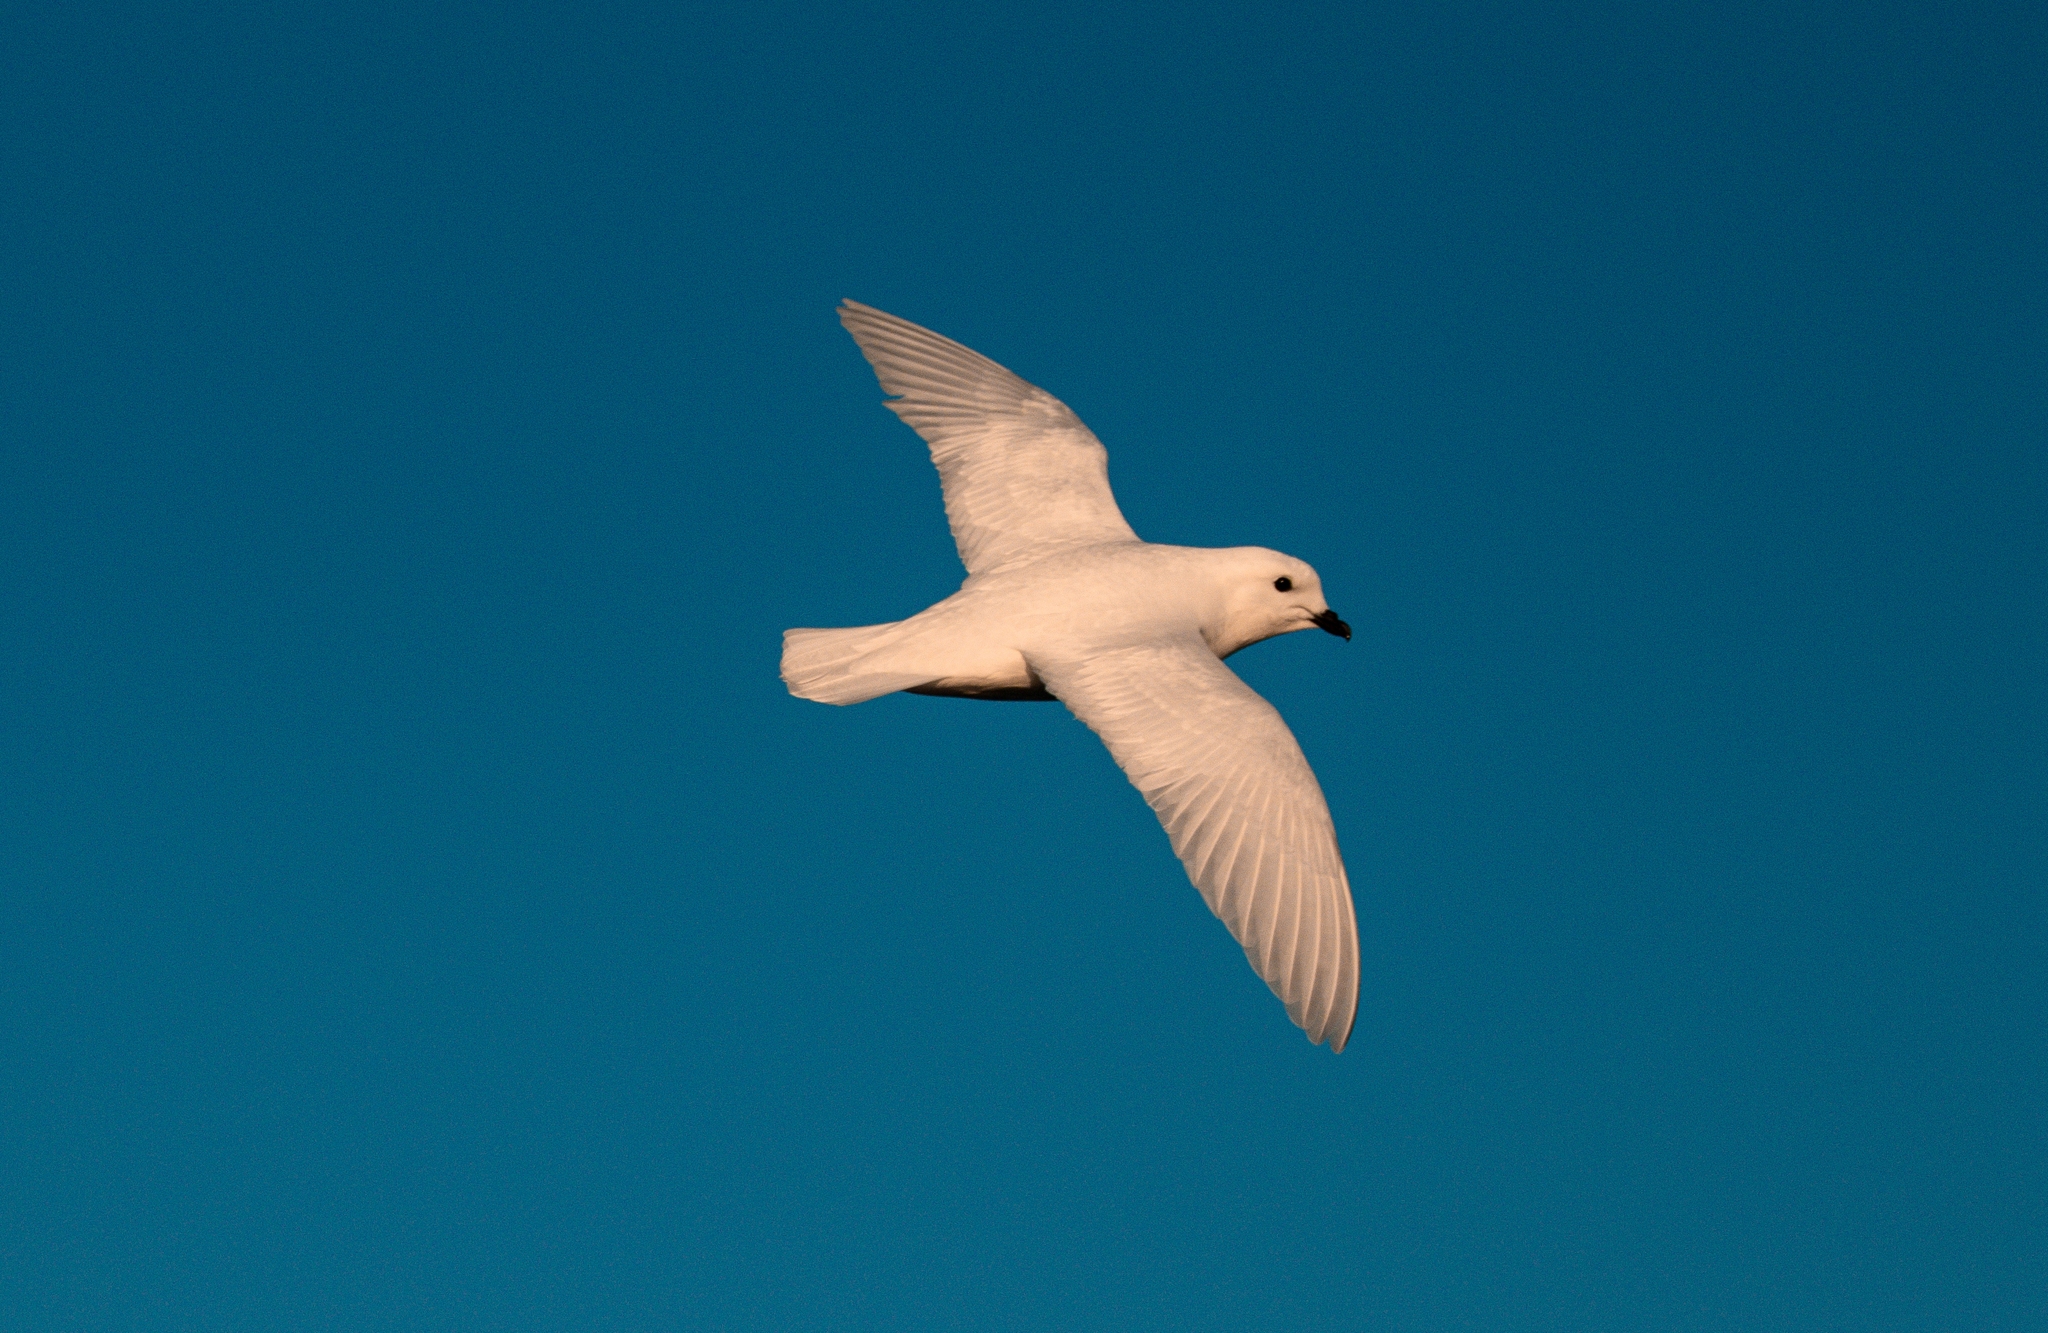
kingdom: Animalia
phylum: Chordata
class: Aves
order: Procellariiformes
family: Procellariidae
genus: Pagodroma
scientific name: Pagodroma nivea
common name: Snow petrel
